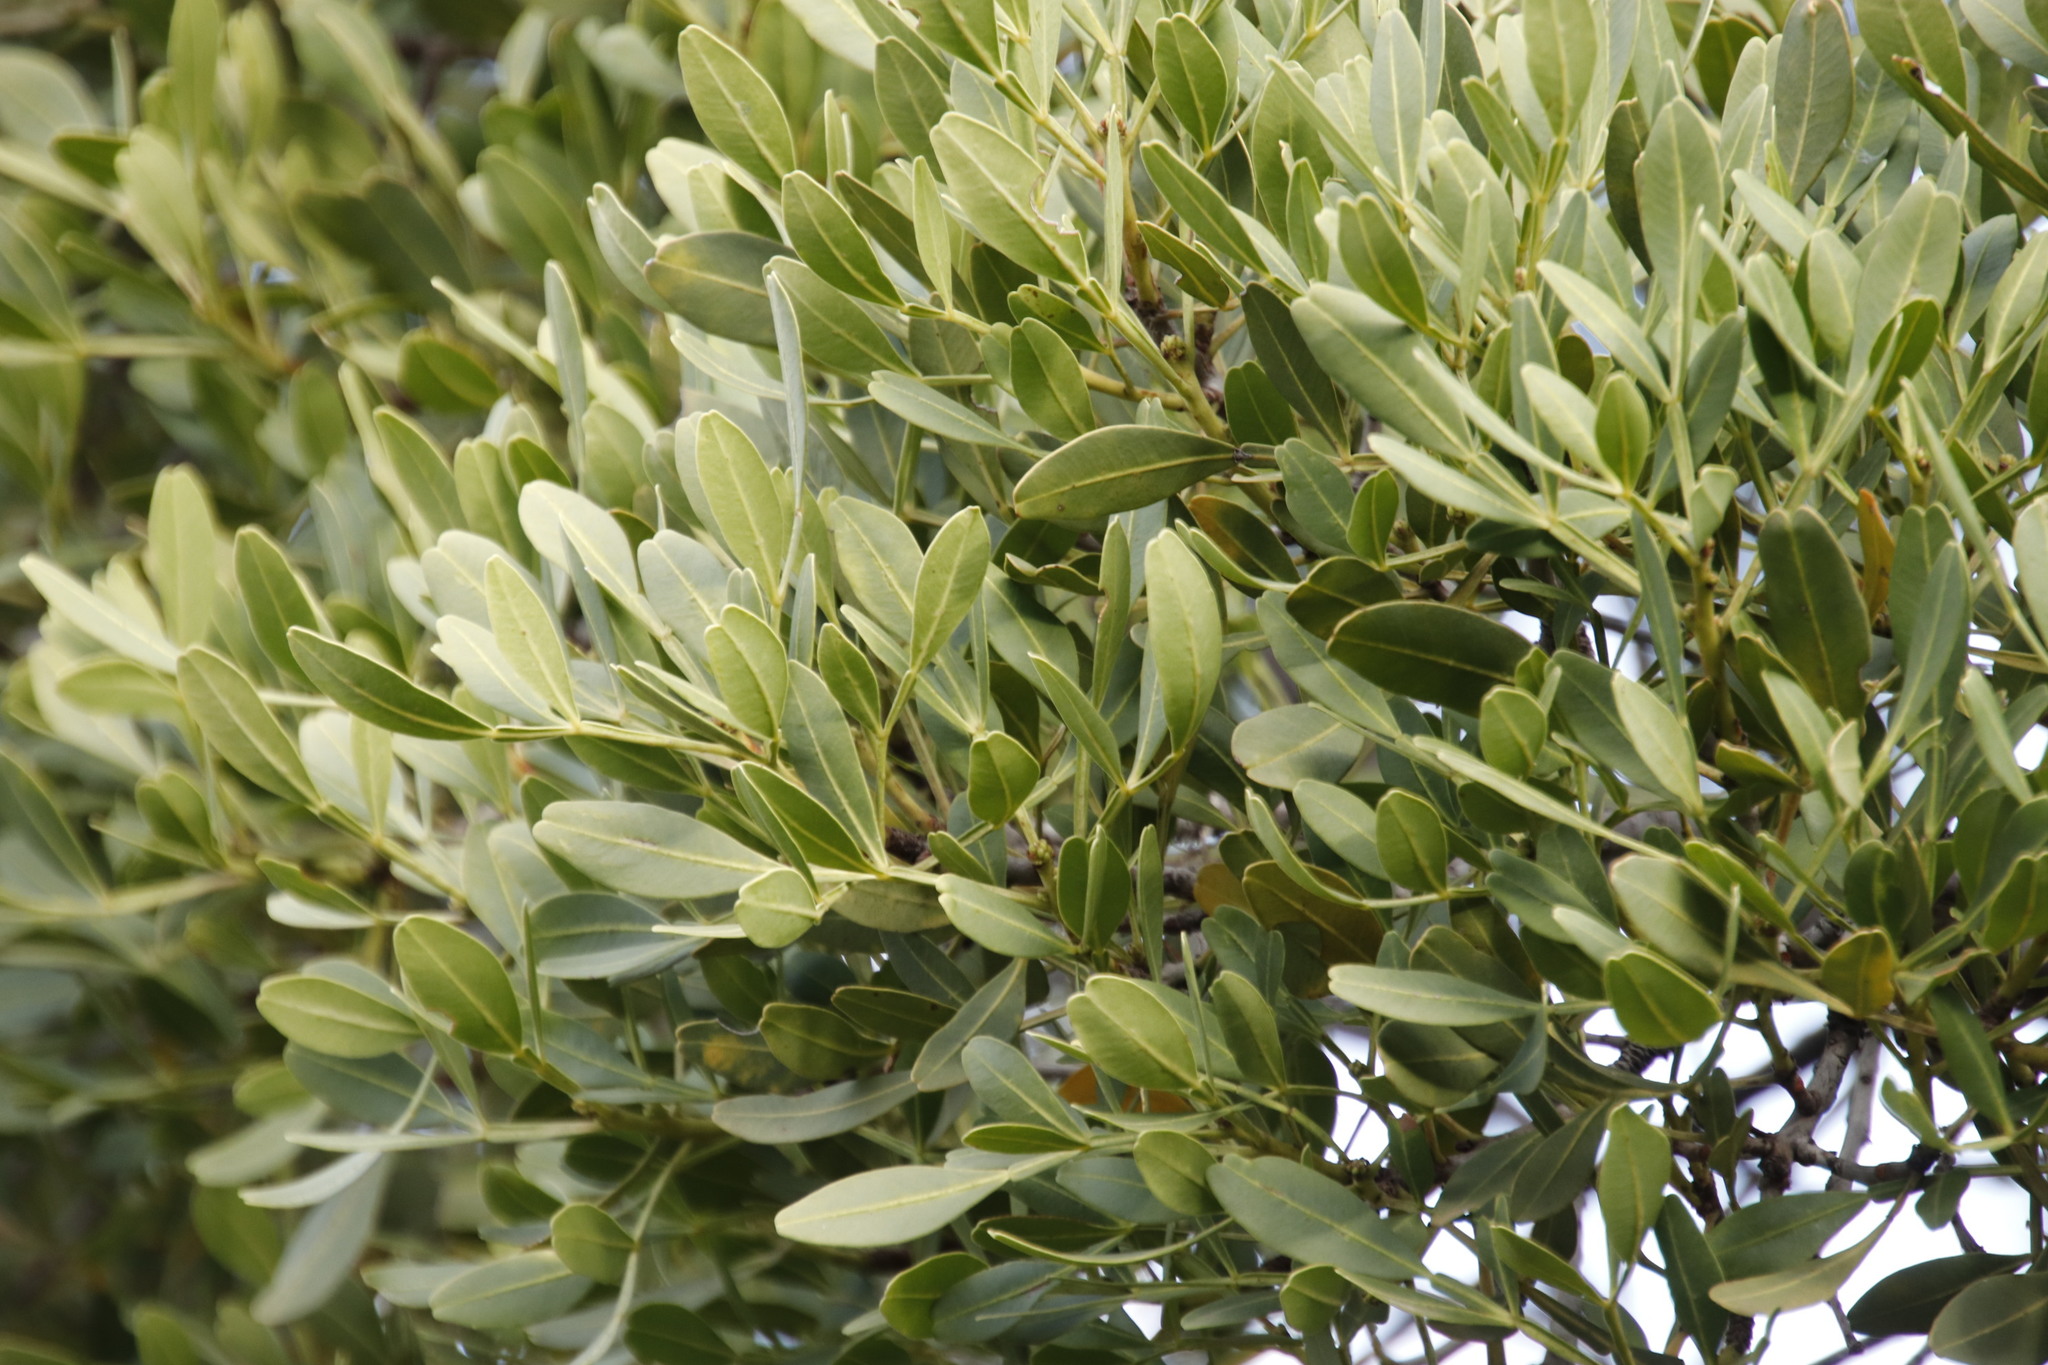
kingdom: Plantae
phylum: Tracheophyta
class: Magnoliopsida
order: Sapindales
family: Meliaceae
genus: Ekebergia
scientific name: Ekebergia pterophylla
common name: Cape ash
